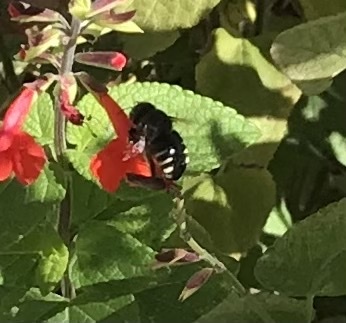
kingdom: Animalia
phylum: Arthropoda
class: Insecta
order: Hymenoptera
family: Apidae
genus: Xylocopa
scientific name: Xylocopa tabaniformis
